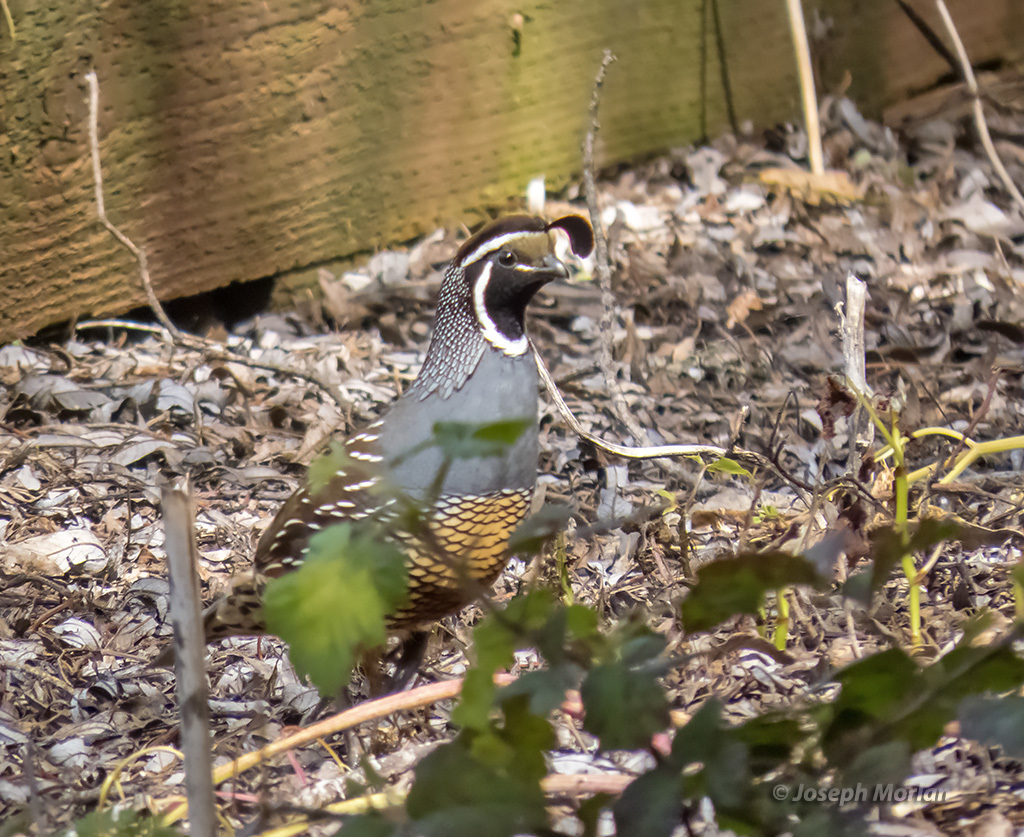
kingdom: Animalia
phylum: Chordata
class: Aves
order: Galliformes
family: Odontophoridae
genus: Callipepla
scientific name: Callipepla californica
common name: California quail
